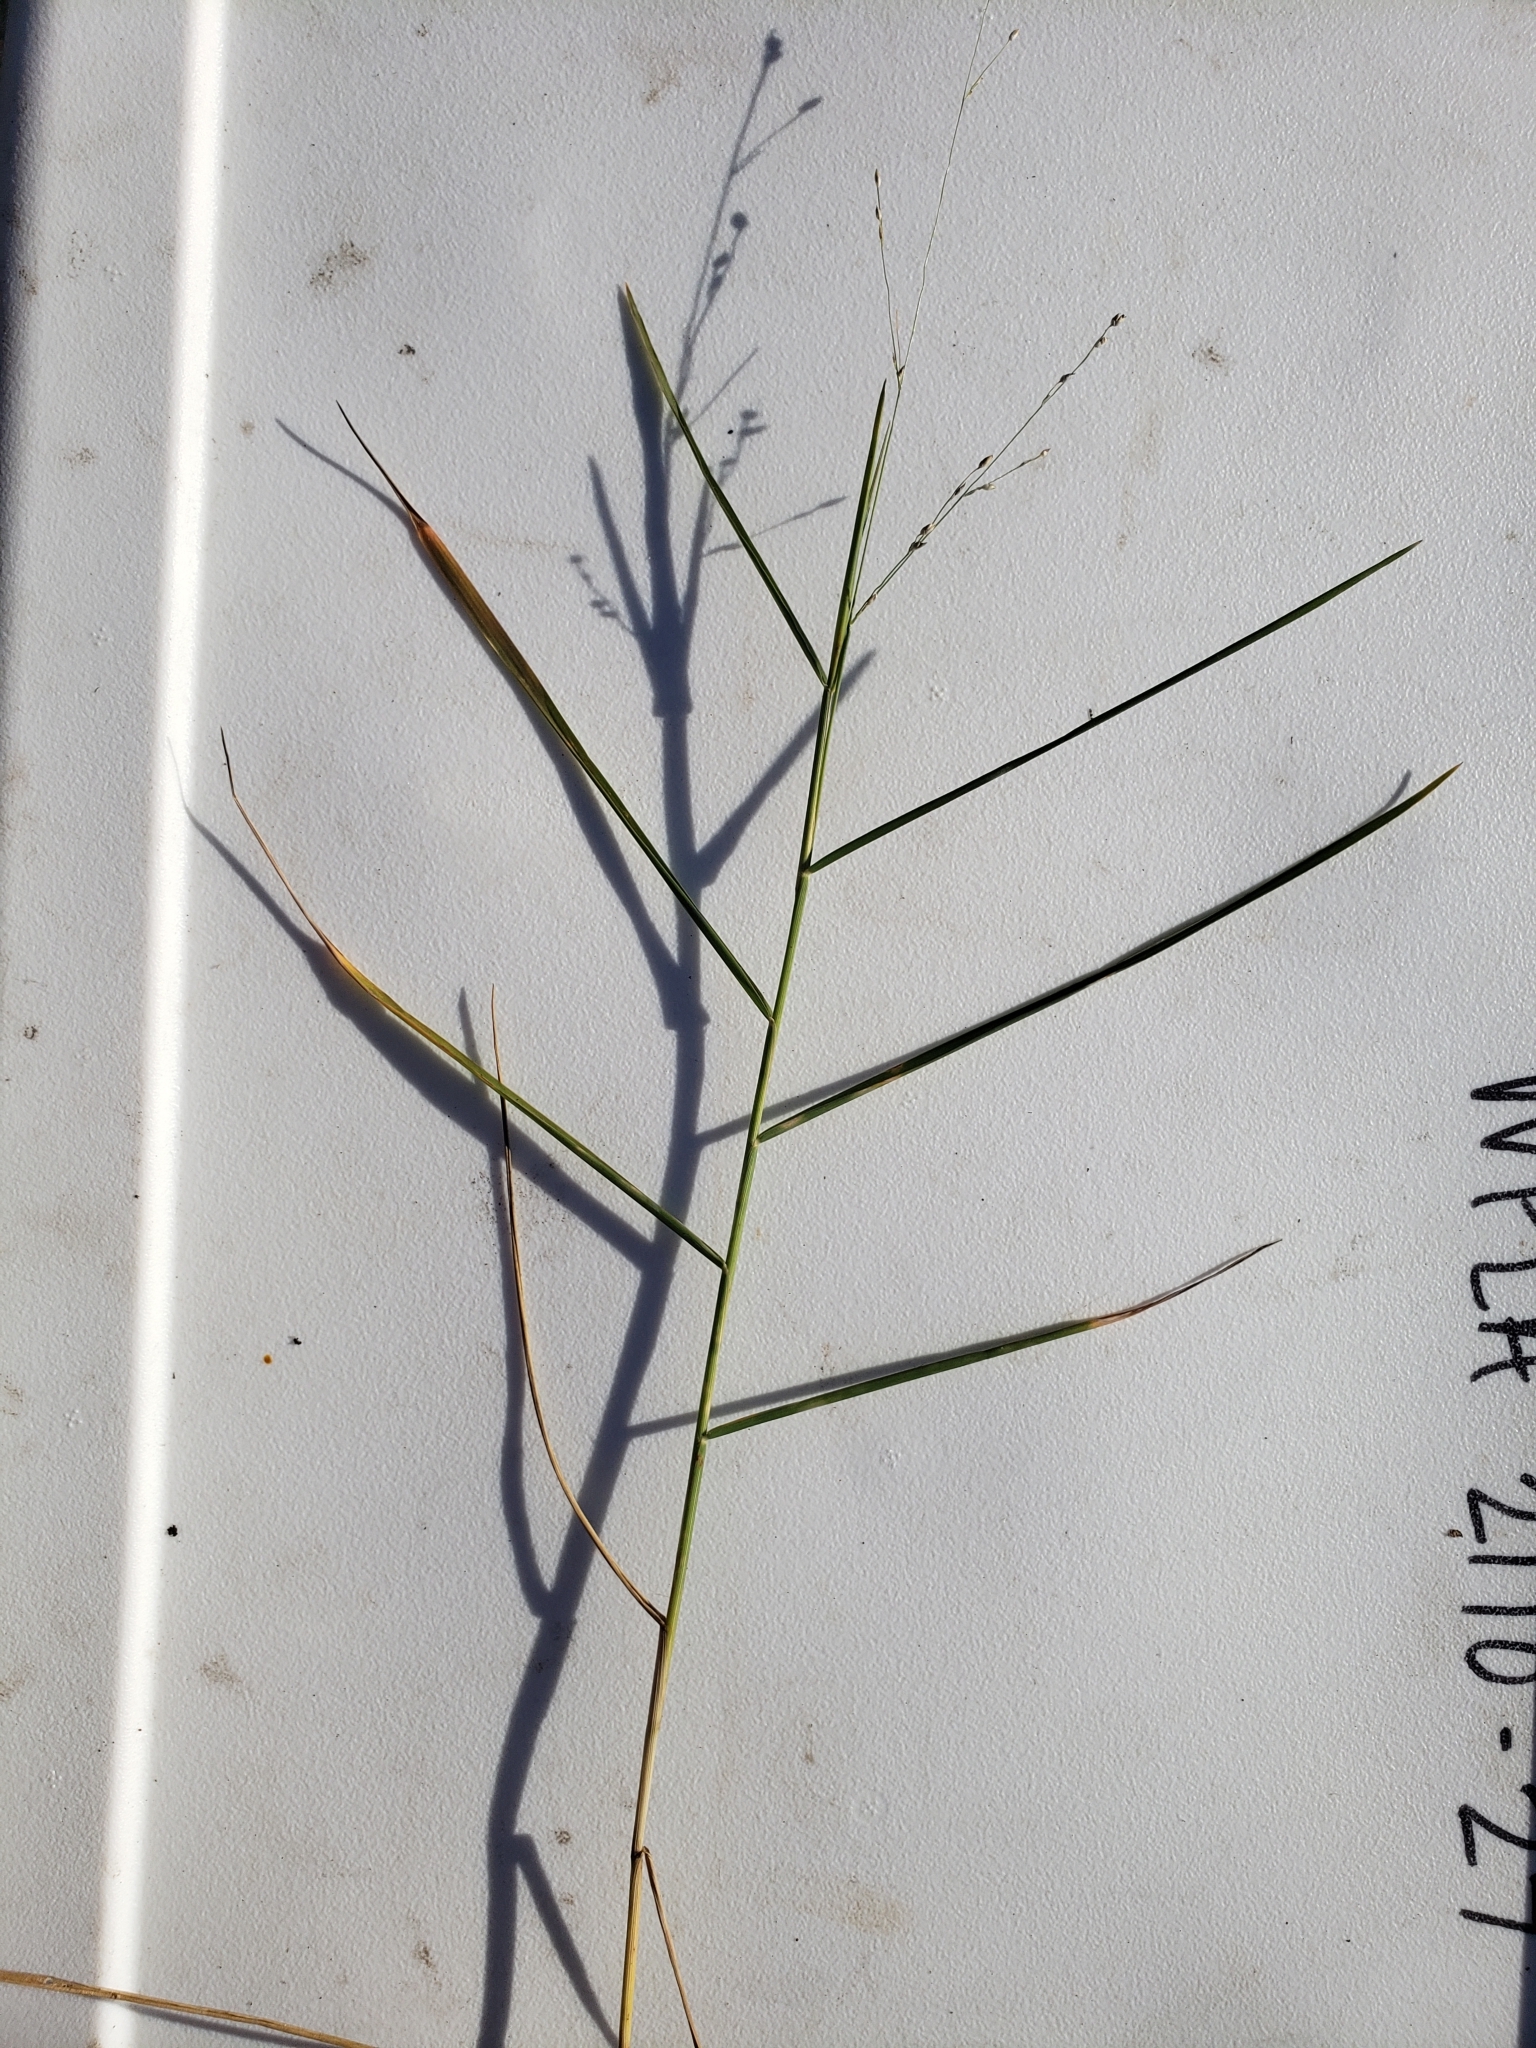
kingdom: Plantae
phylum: Tracheophyta
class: Liliopsida
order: Poales
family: Poaceae
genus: Panicum
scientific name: Panicum repens
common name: Torpedo grass
